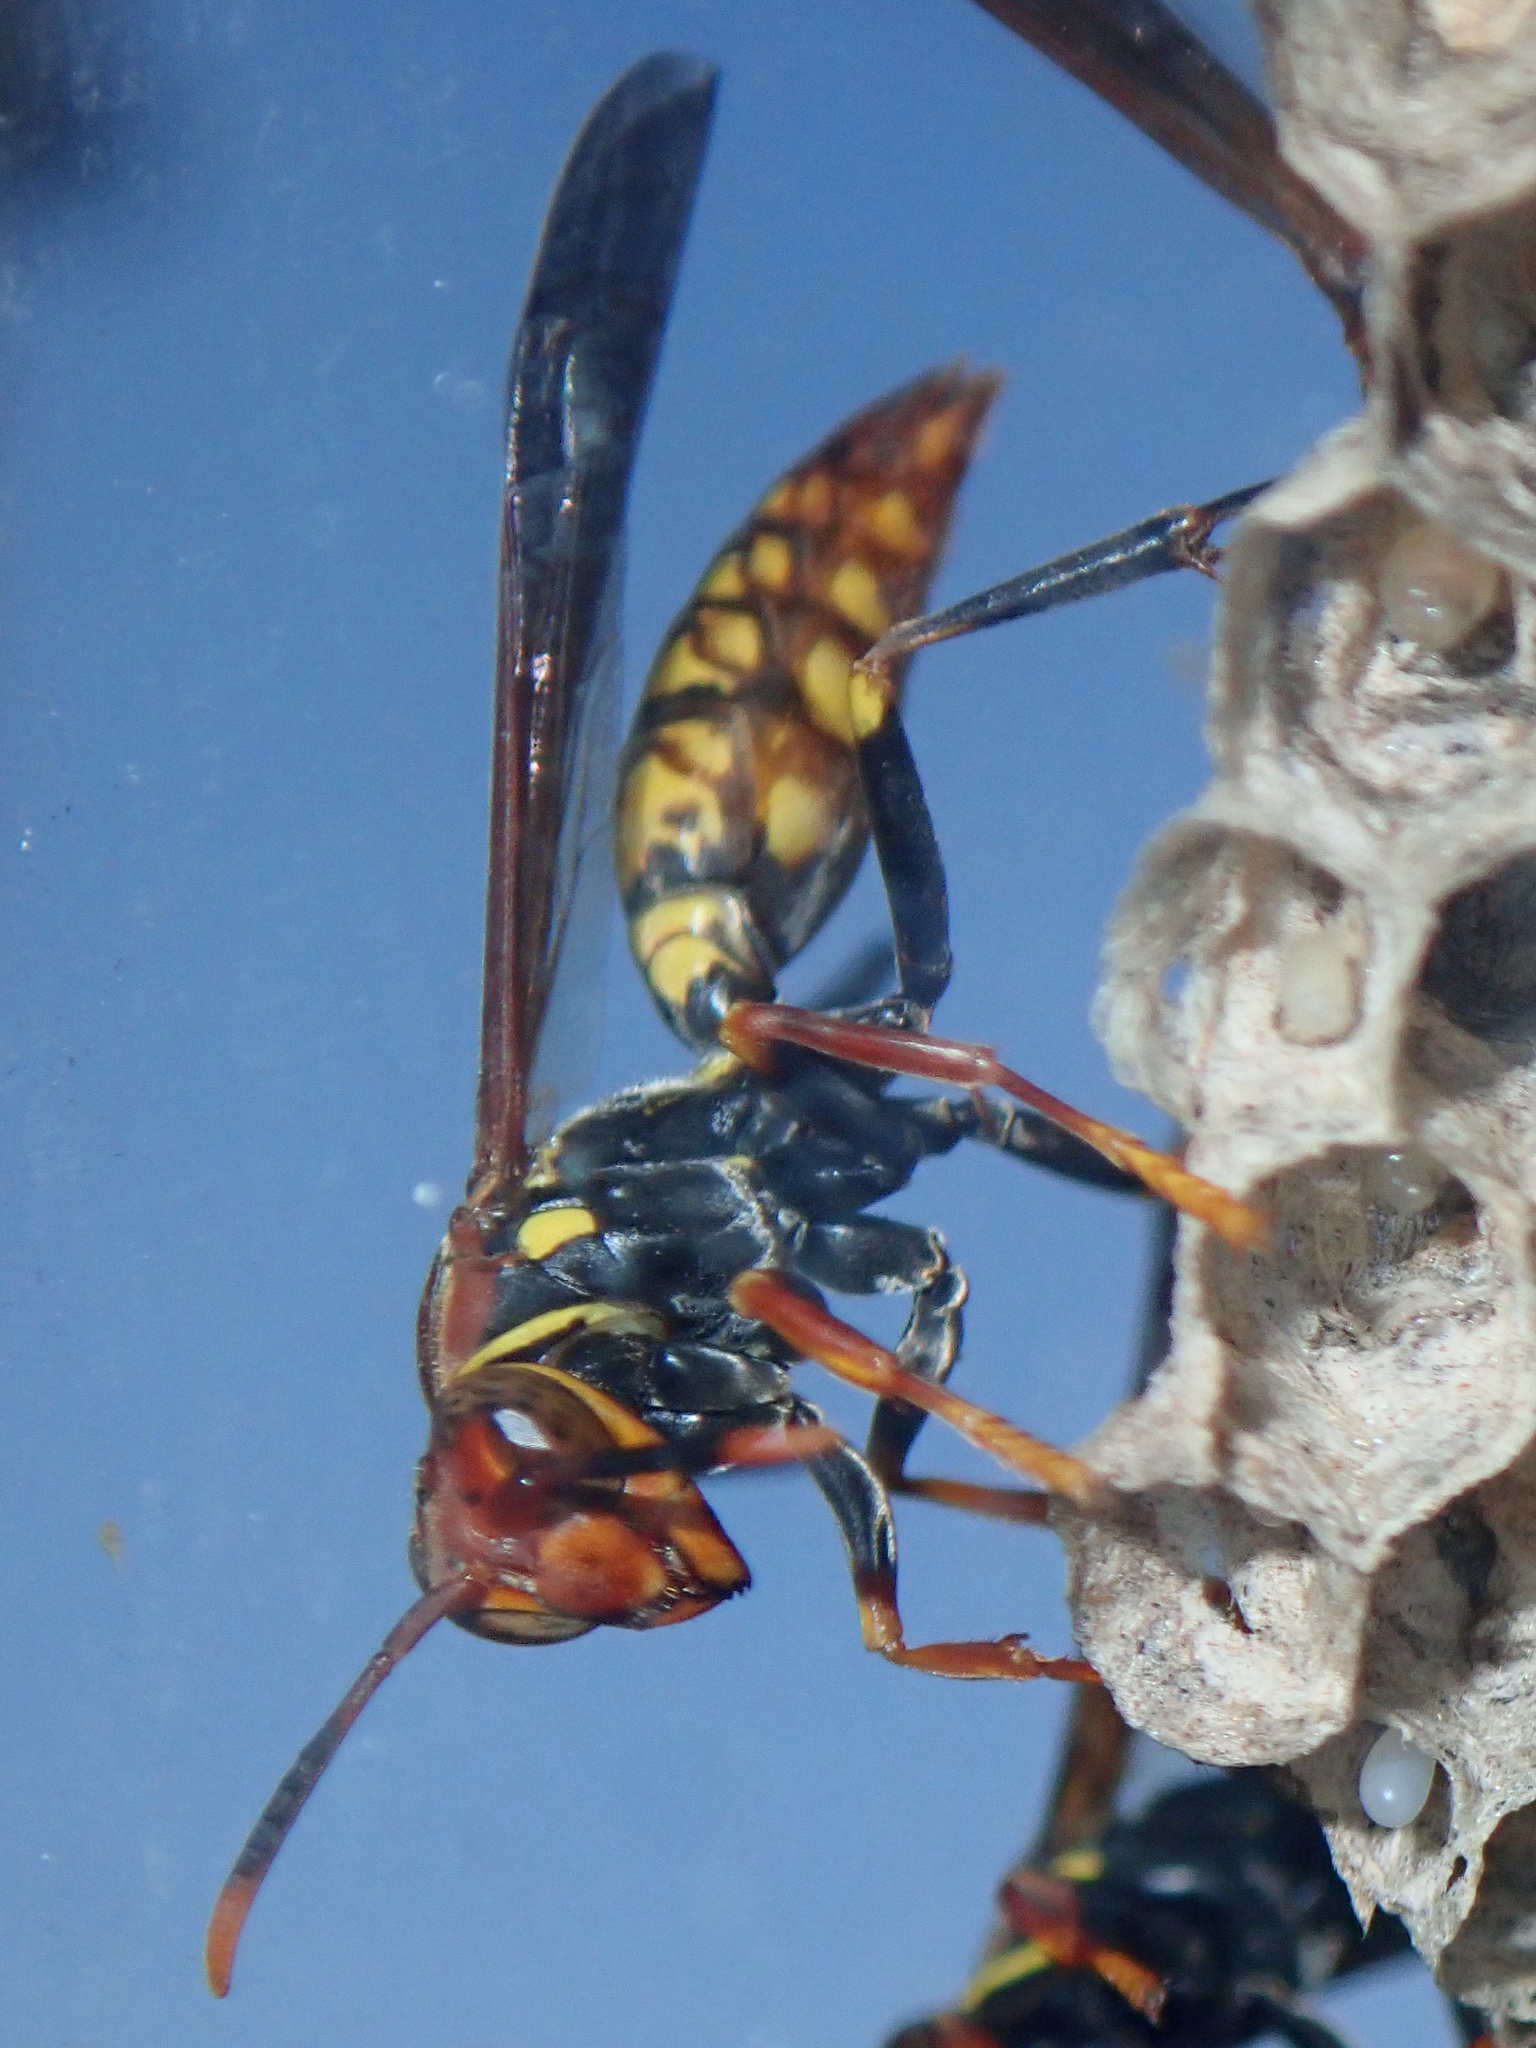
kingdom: Animalia
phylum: Arthropoda
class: Insecta
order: Hymenoptera
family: Eumenidae
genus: Polistes
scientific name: Polistes versicolor
